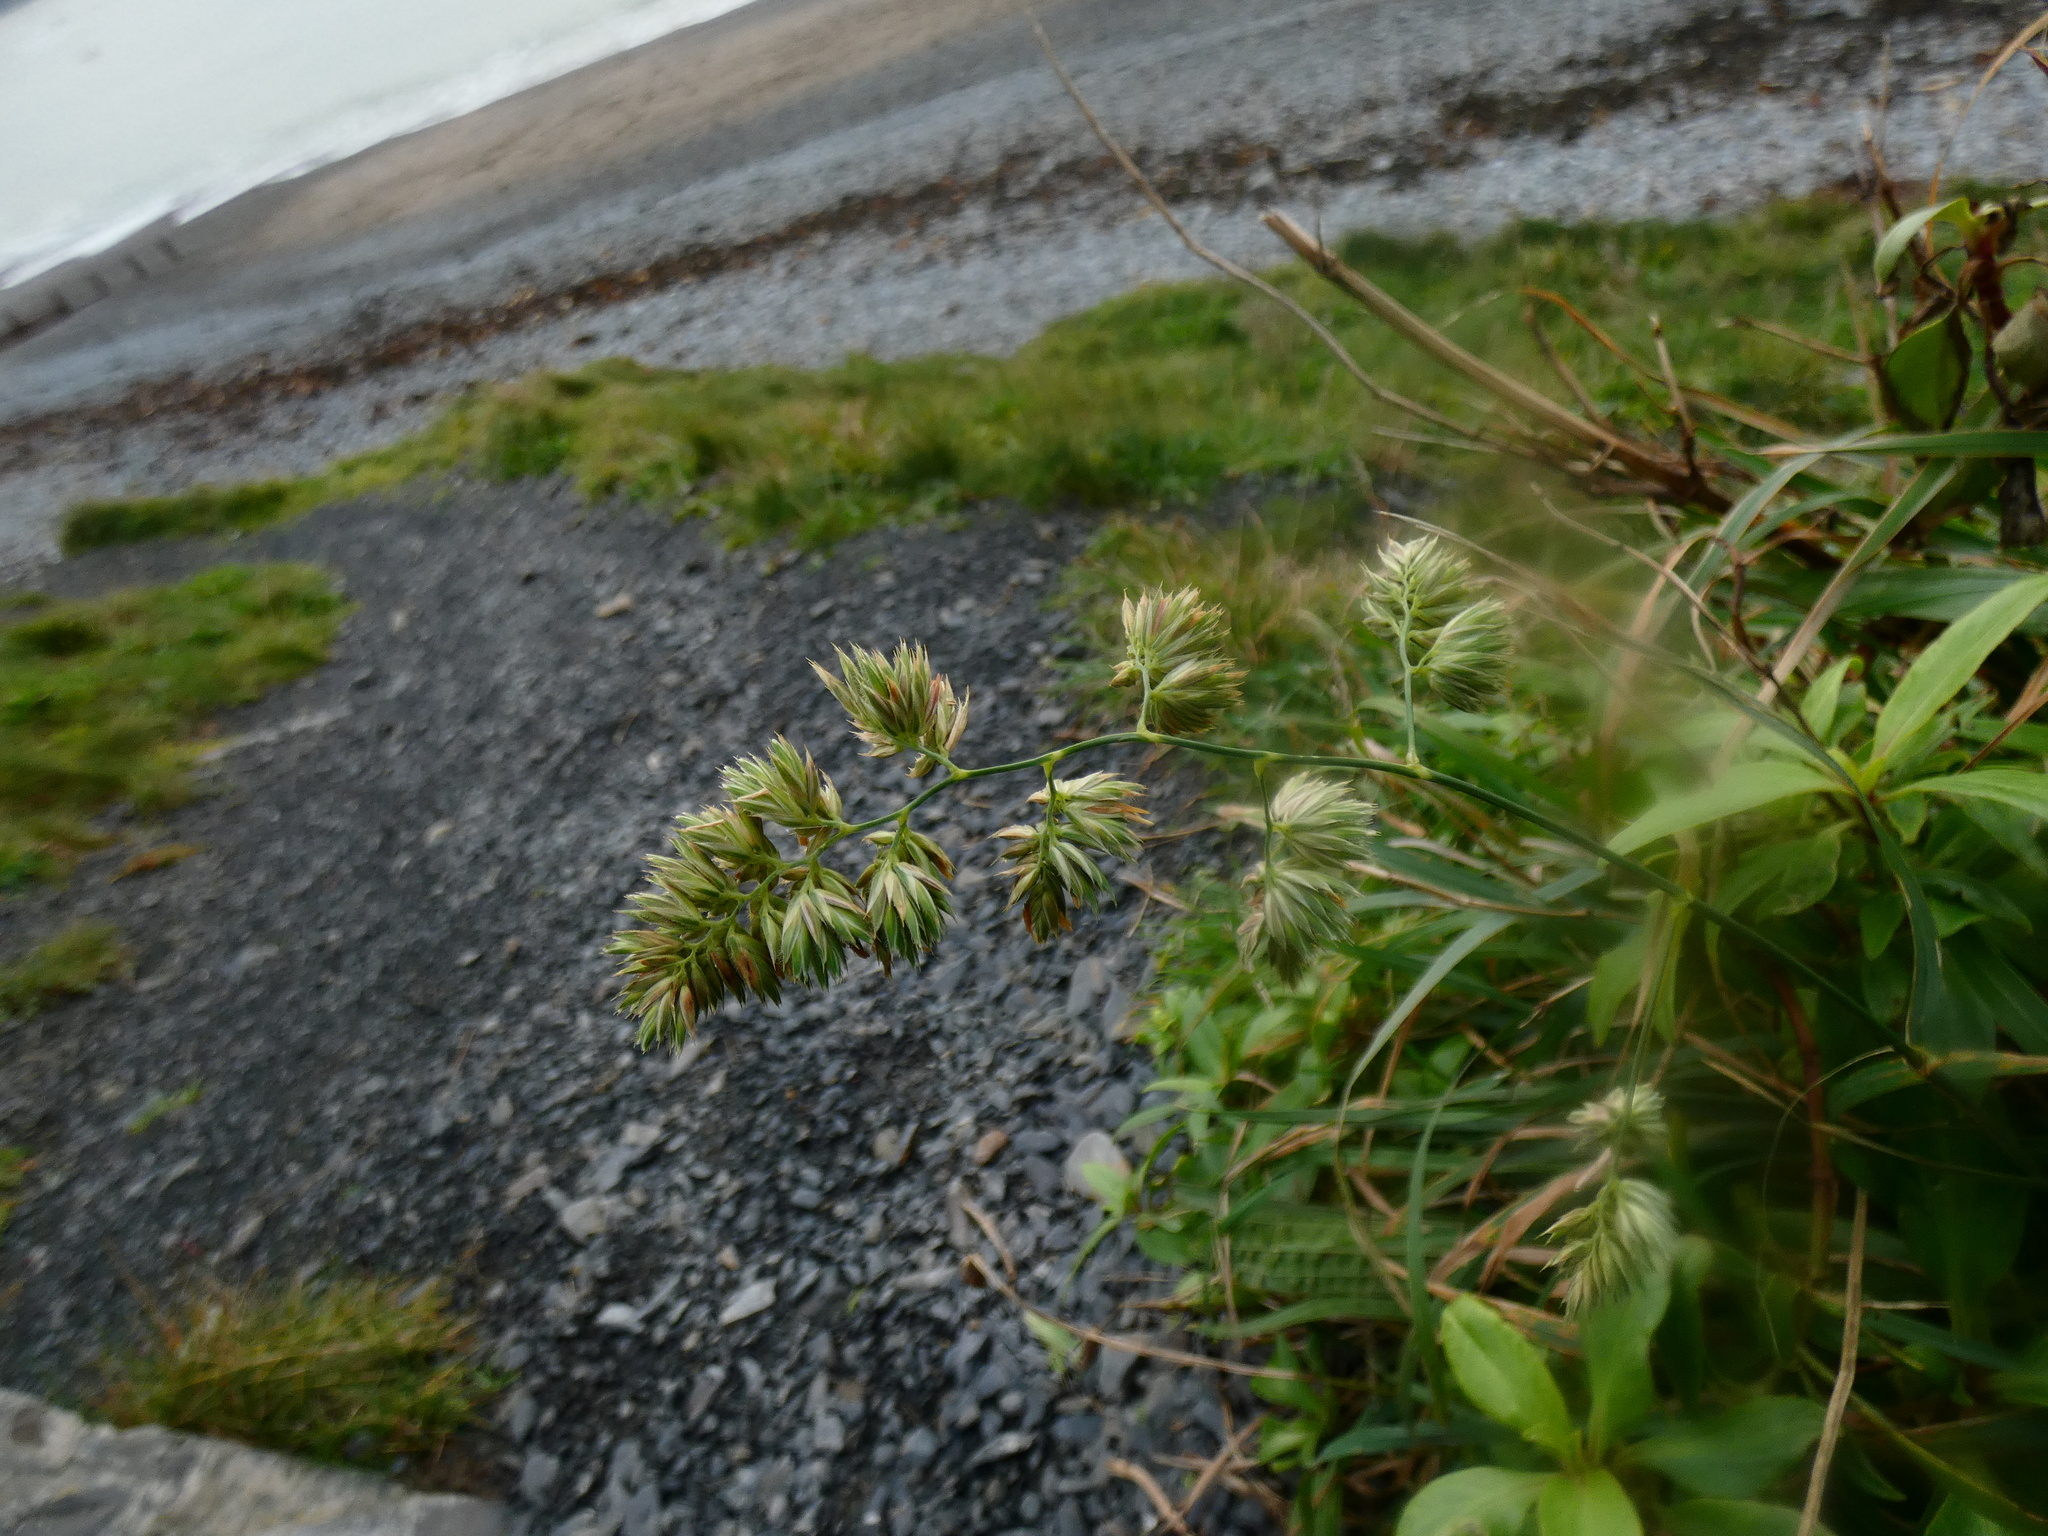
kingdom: Plantae
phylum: Tracheophyta
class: Liliopsida
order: Poales
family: Poaceae
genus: Dactylis
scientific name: Dactylis glomerata
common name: Orchardgrass
